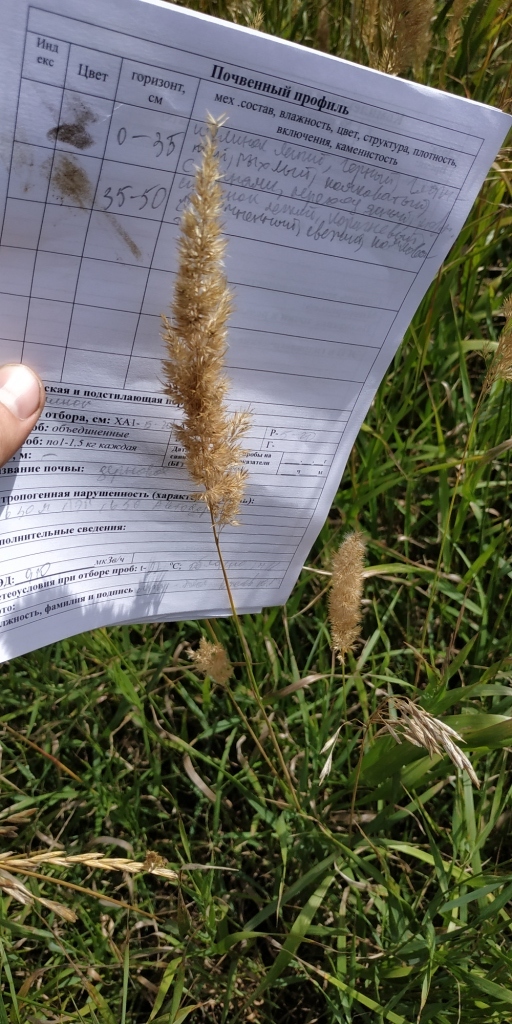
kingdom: Plantae
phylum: Tracheophyta
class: Liliopsida
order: Poales
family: Poaceae
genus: Calamagrostis
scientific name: Calamagrostis epigejos
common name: Wood small-reed
